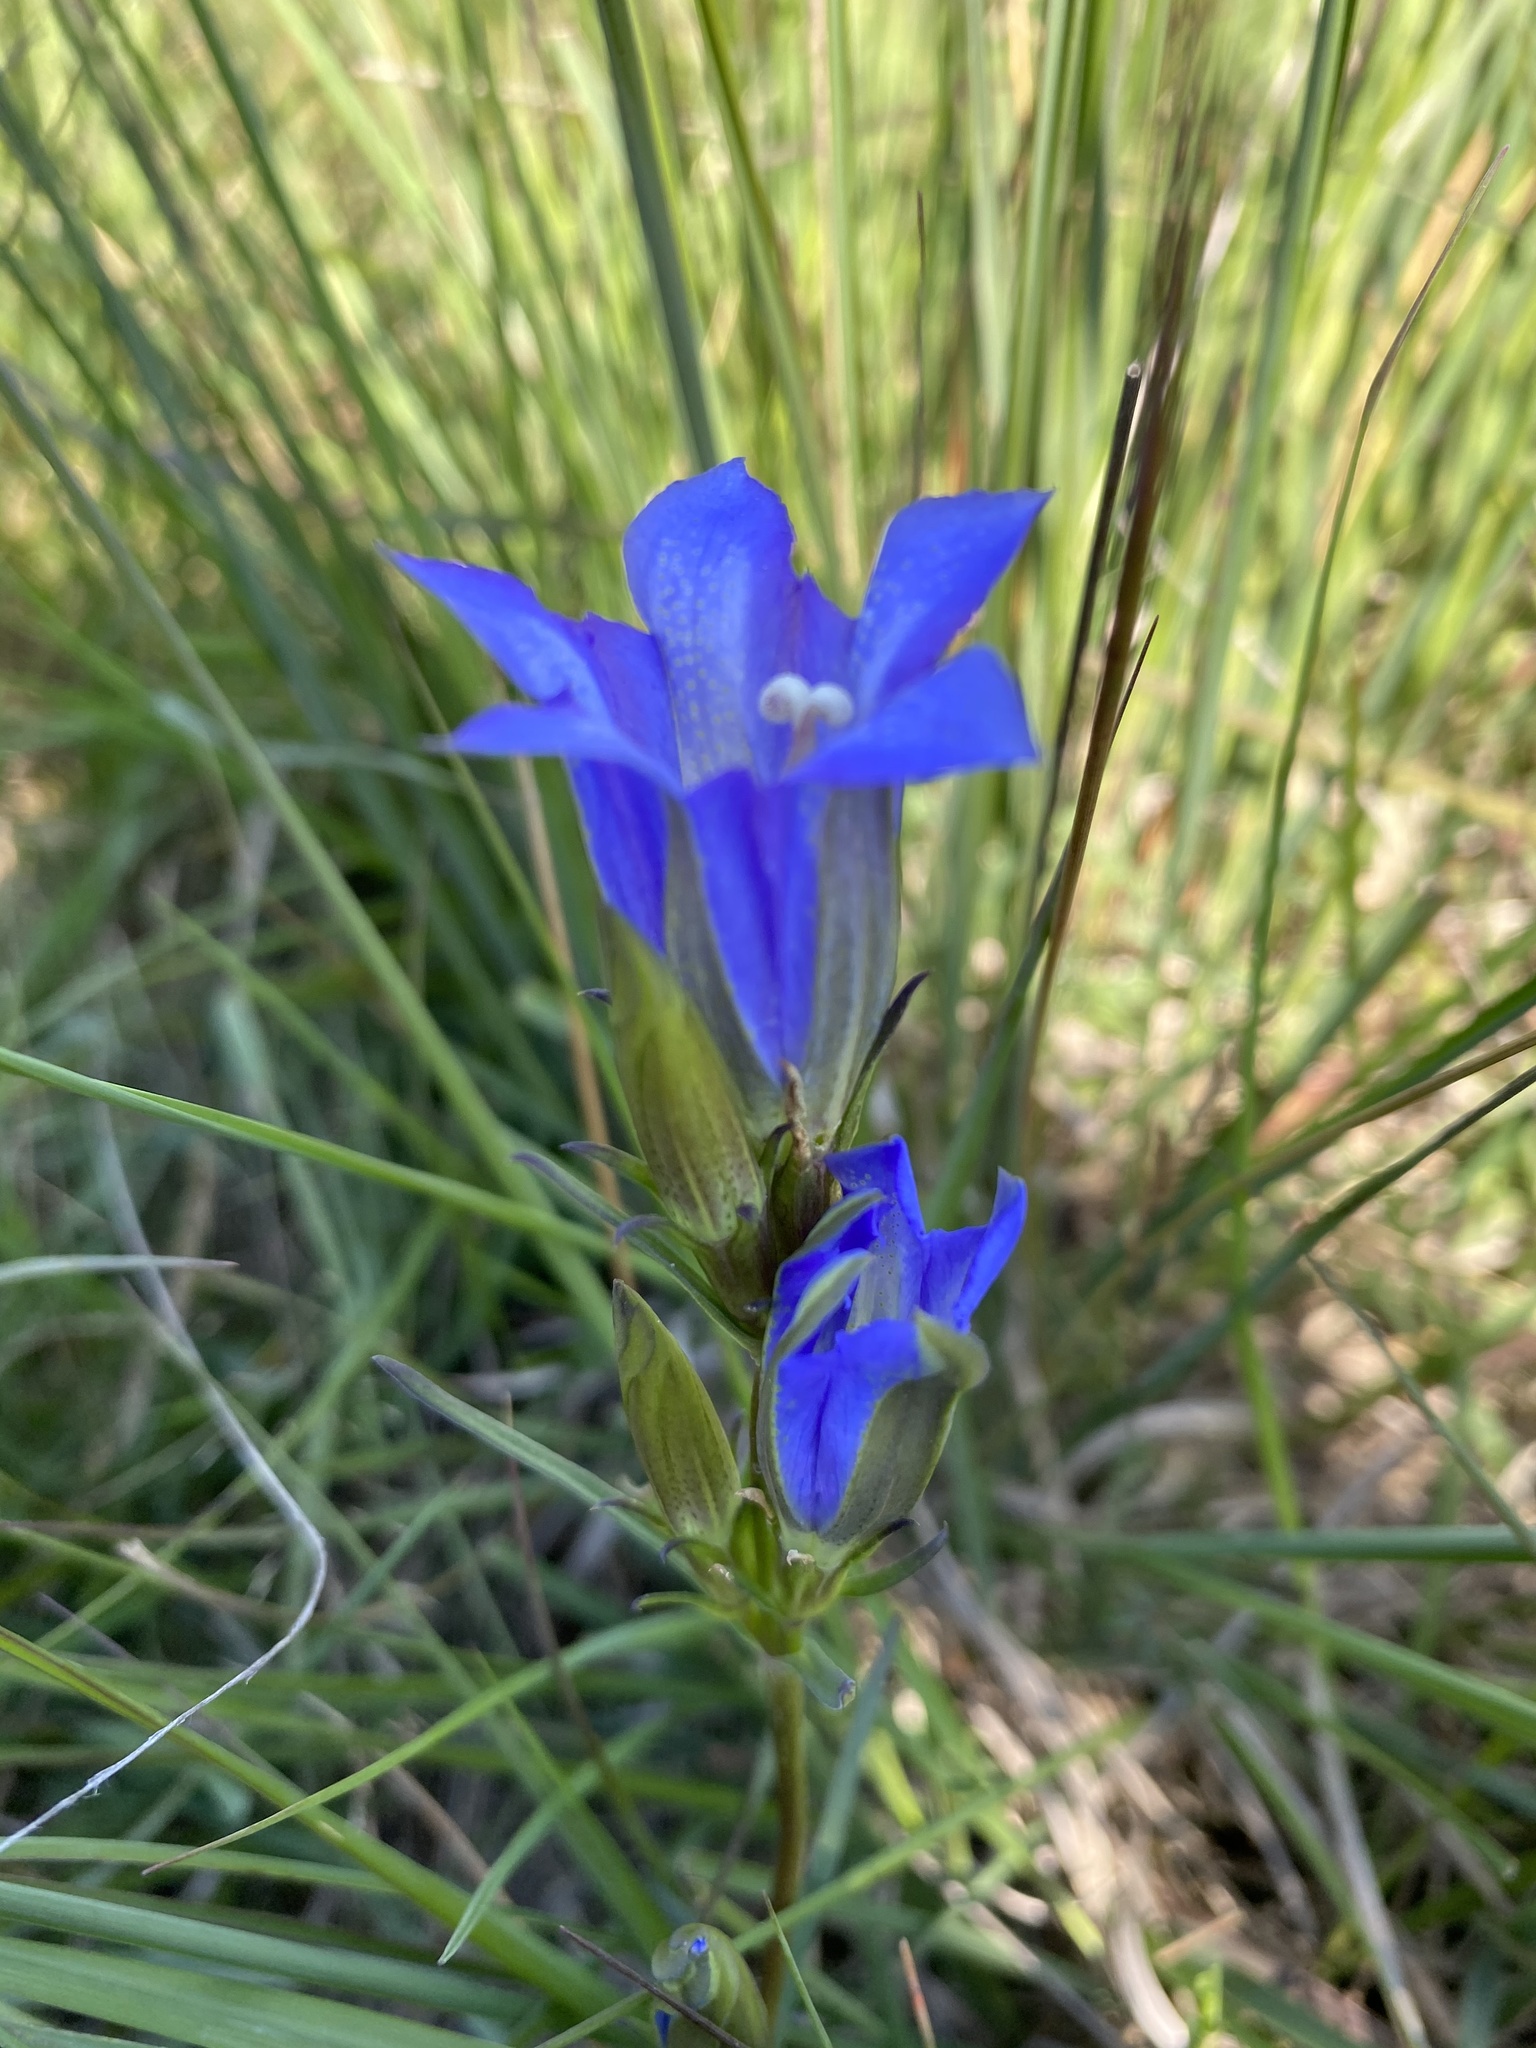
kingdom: Plantae
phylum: Tracheophyta
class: Magnoliopsida
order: Gentianales
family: Gentianaceae
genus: Gentiana
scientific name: Gentiana pneumonanthe
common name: Marsh gentian
